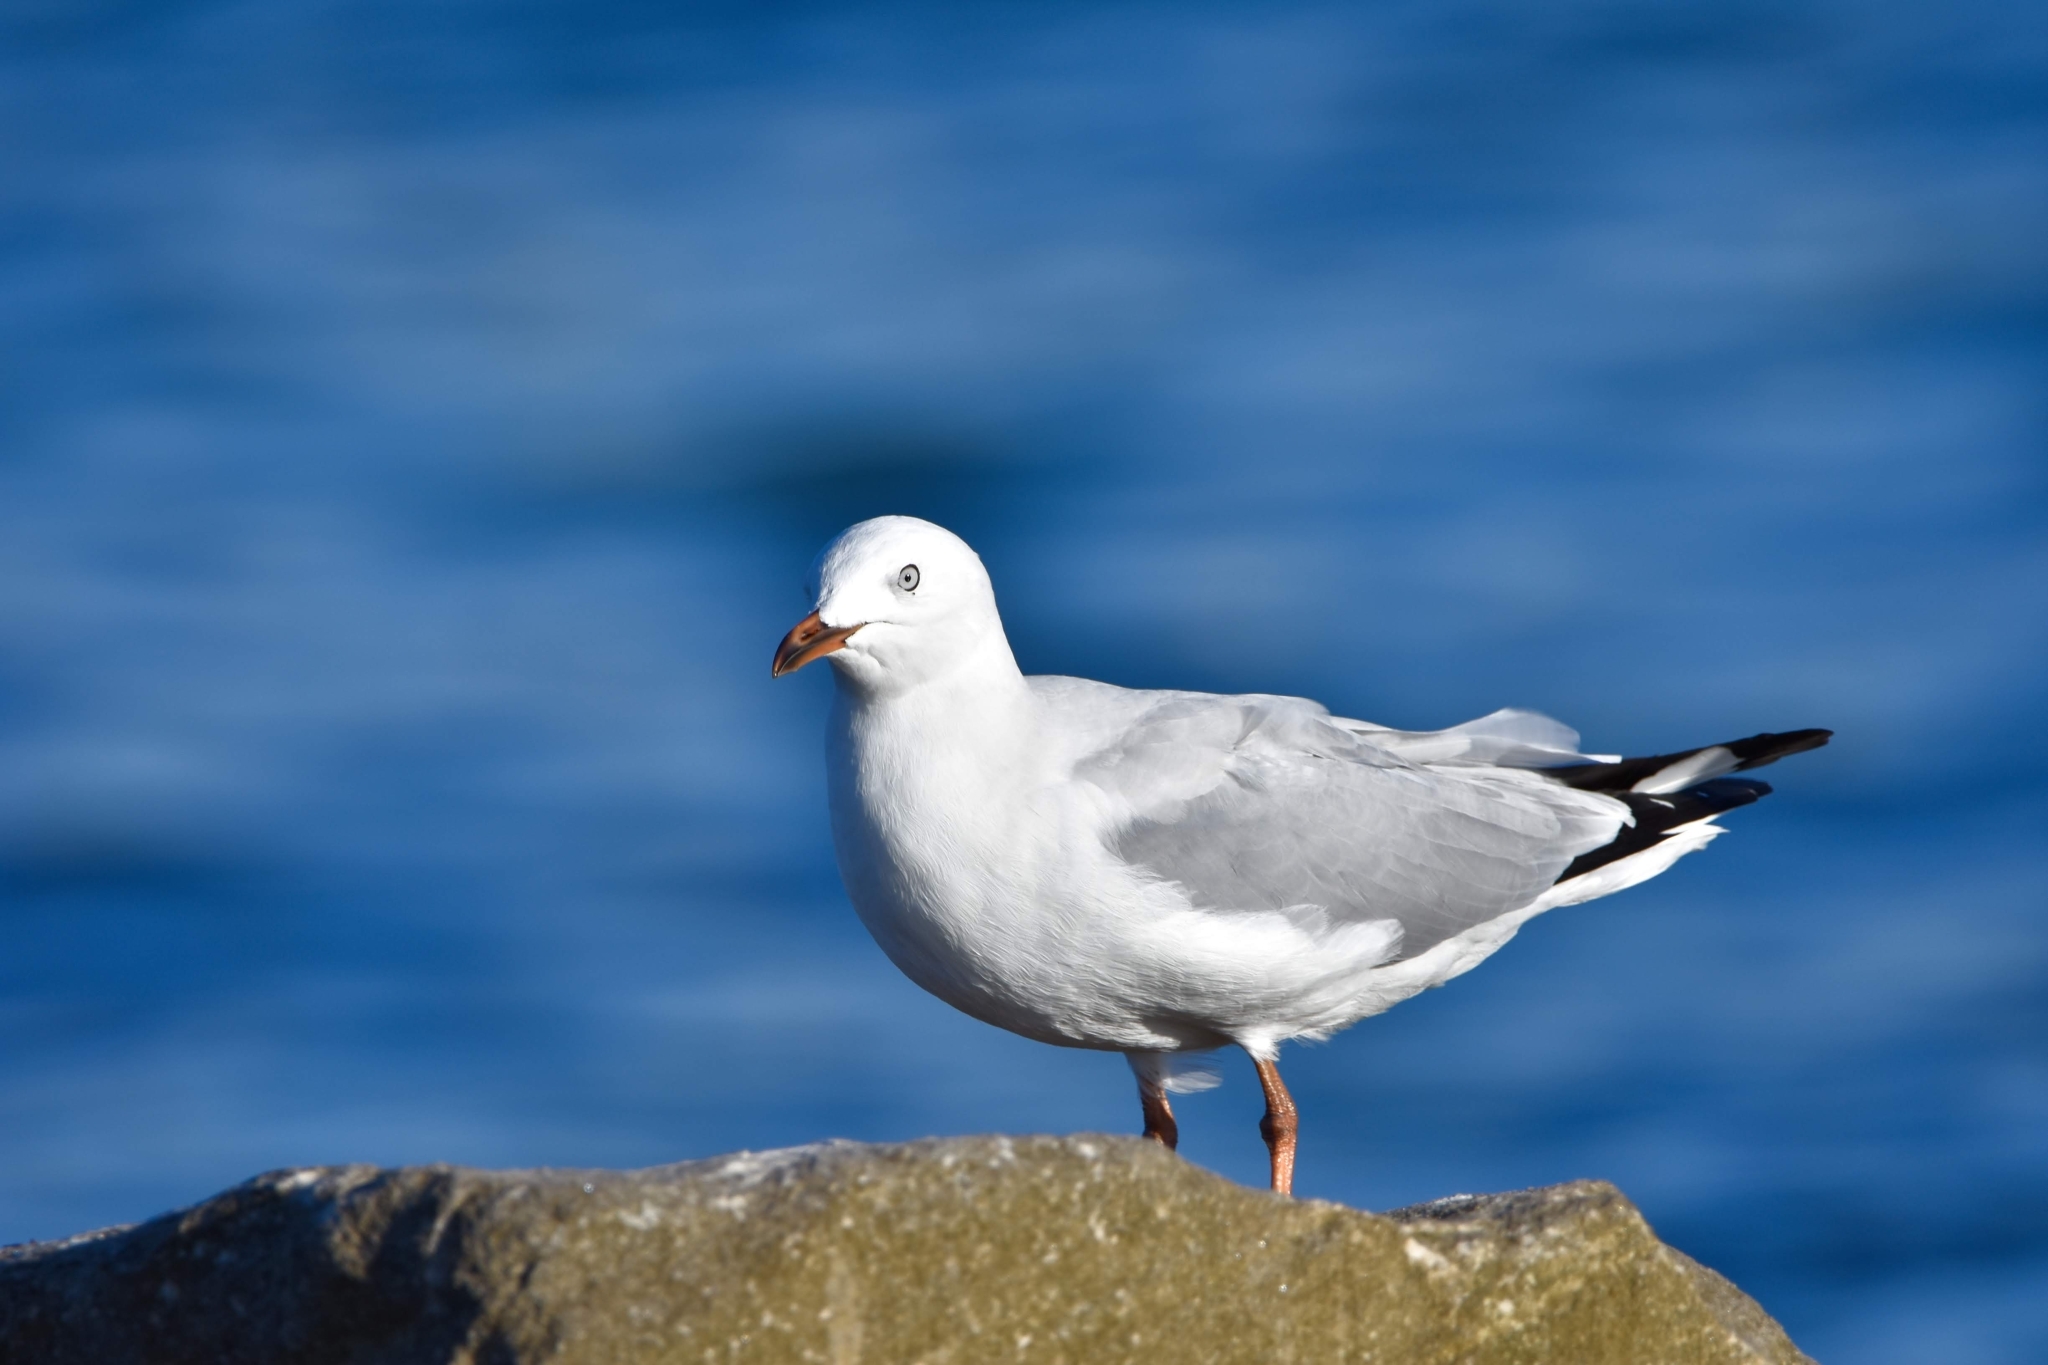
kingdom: Animalia
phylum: Chordata
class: Aves
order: Charadriiformes
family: Laridae
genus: Chroicocephalus
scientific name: Chroicocephalus novaehollandiae
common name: Silver gull
